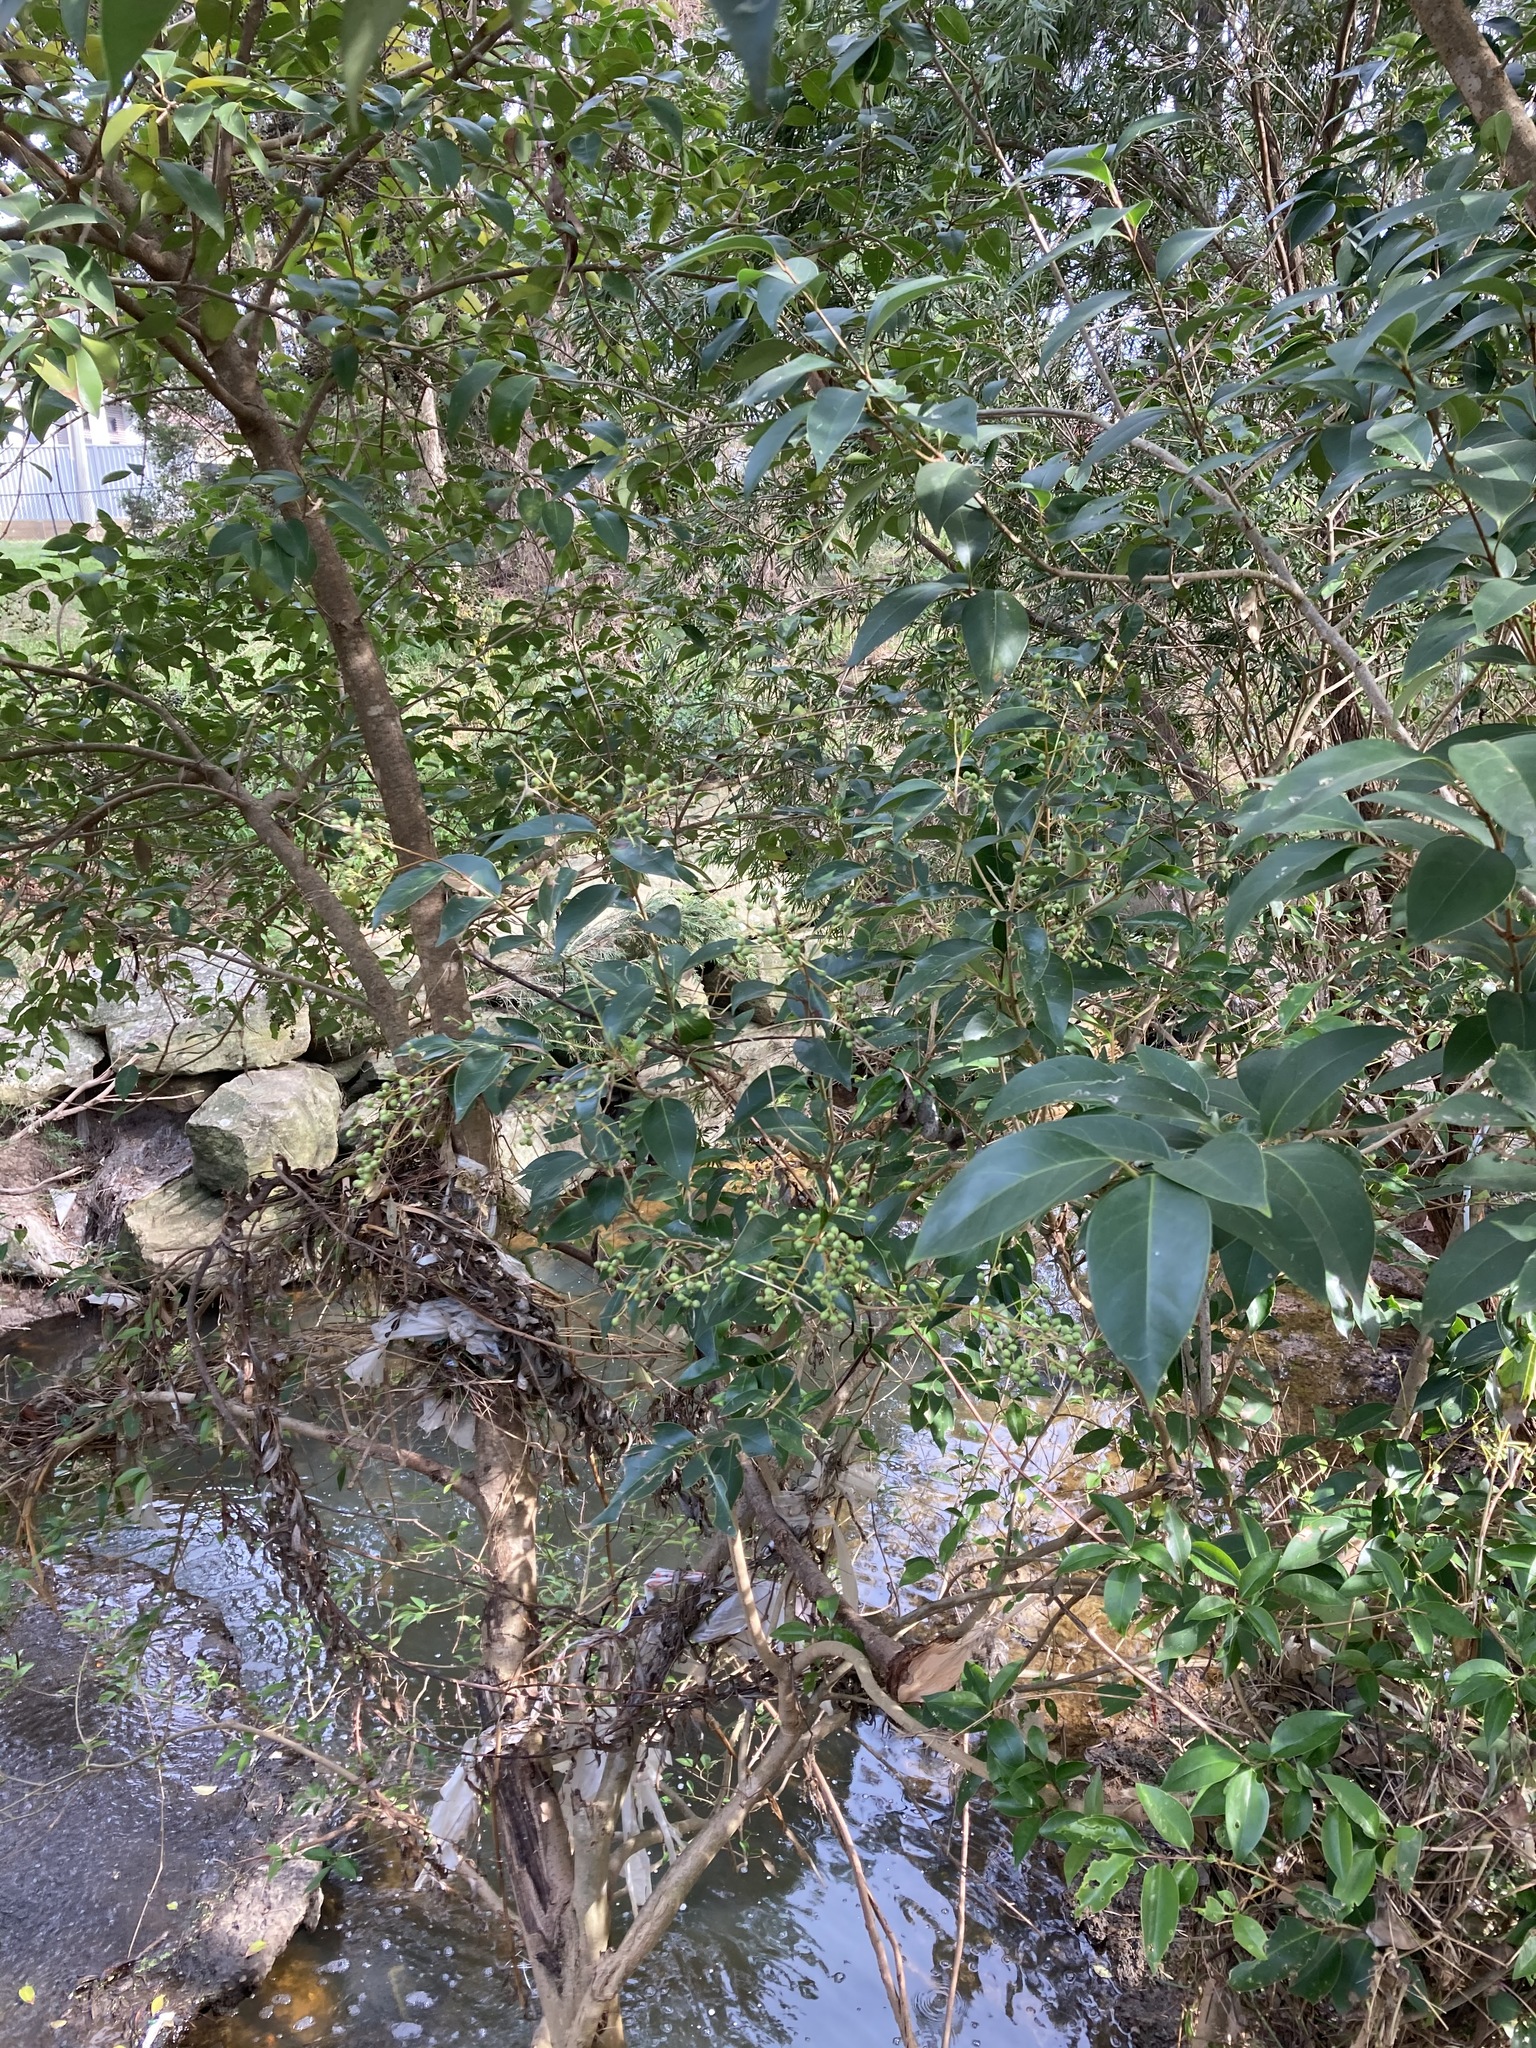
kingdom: Plantae
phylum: Tracheophyta
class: Magnoliopsida
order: Lamiales
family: Oleaceae
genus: Ligustrum
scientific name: Ligustrum lucidum
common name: Glossy privet
